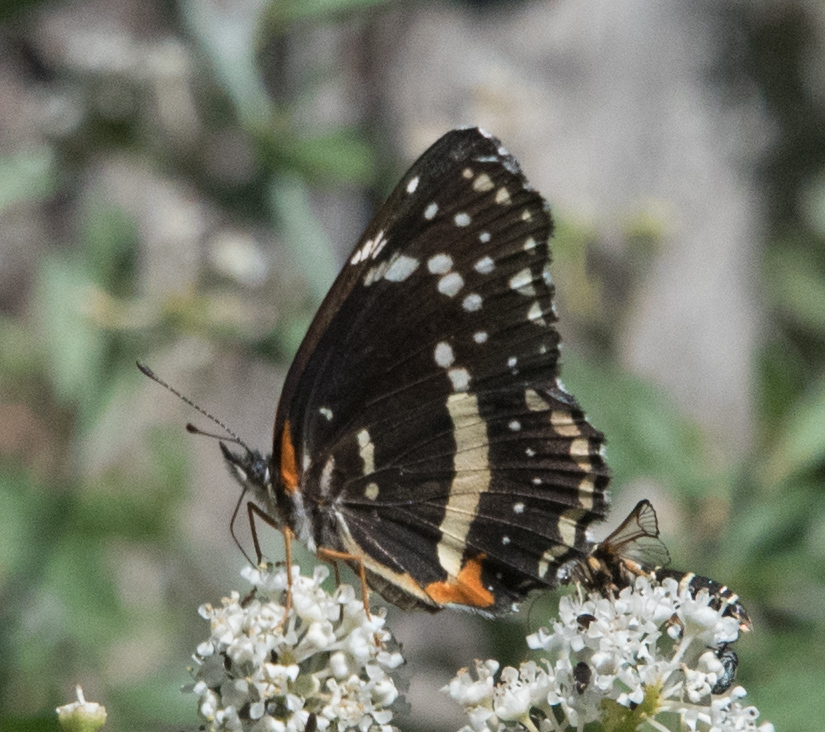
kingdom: Animalia
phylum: Arthropoda
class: Insecta
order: Lepidoptera
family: Nymphalidae
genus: Chlosyne
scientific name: Chlosyne lacinia
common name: Bordered patch
